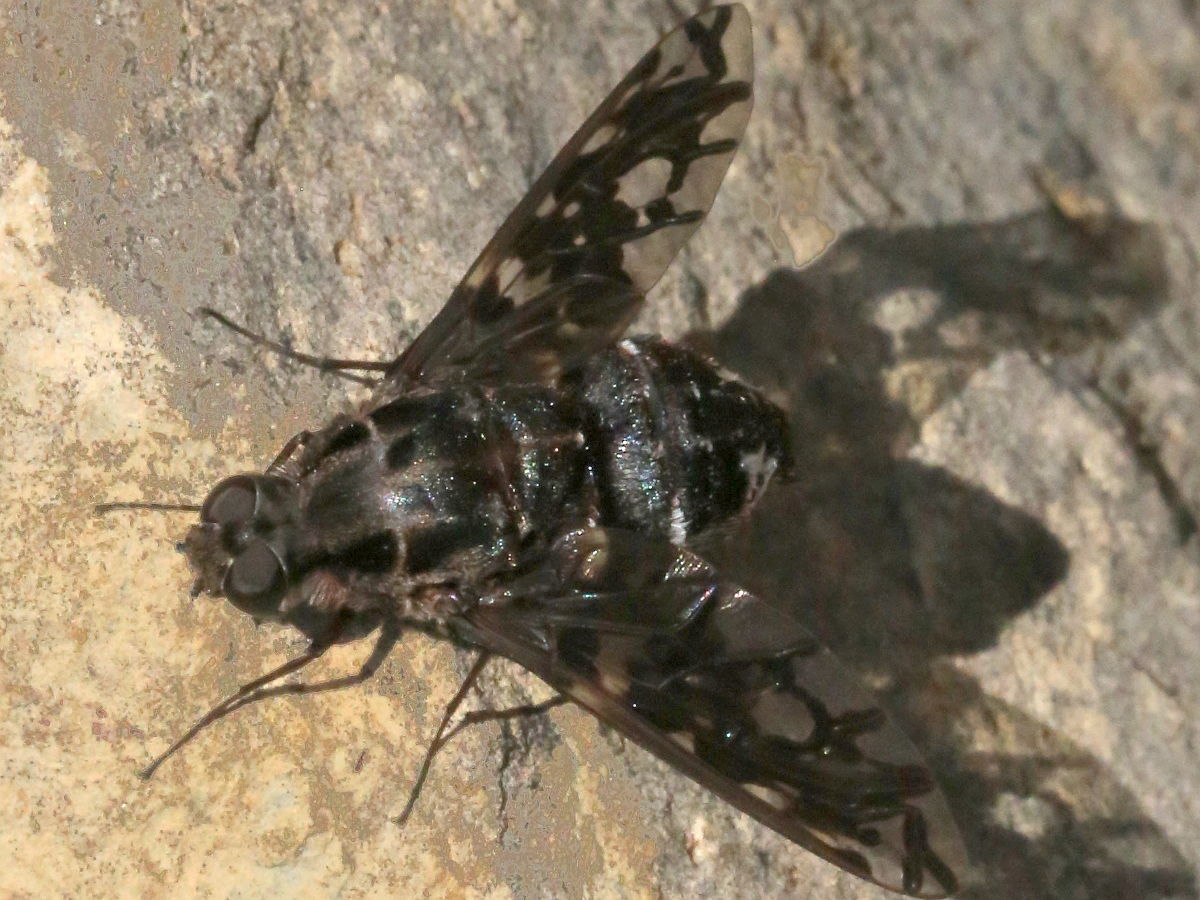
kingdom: Animalia
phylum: Arthropoda
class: Insecta
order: Diptera
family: Bombyliidae
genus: Xenox
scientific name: Xenox tigrinus
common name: Tiger bee fly
